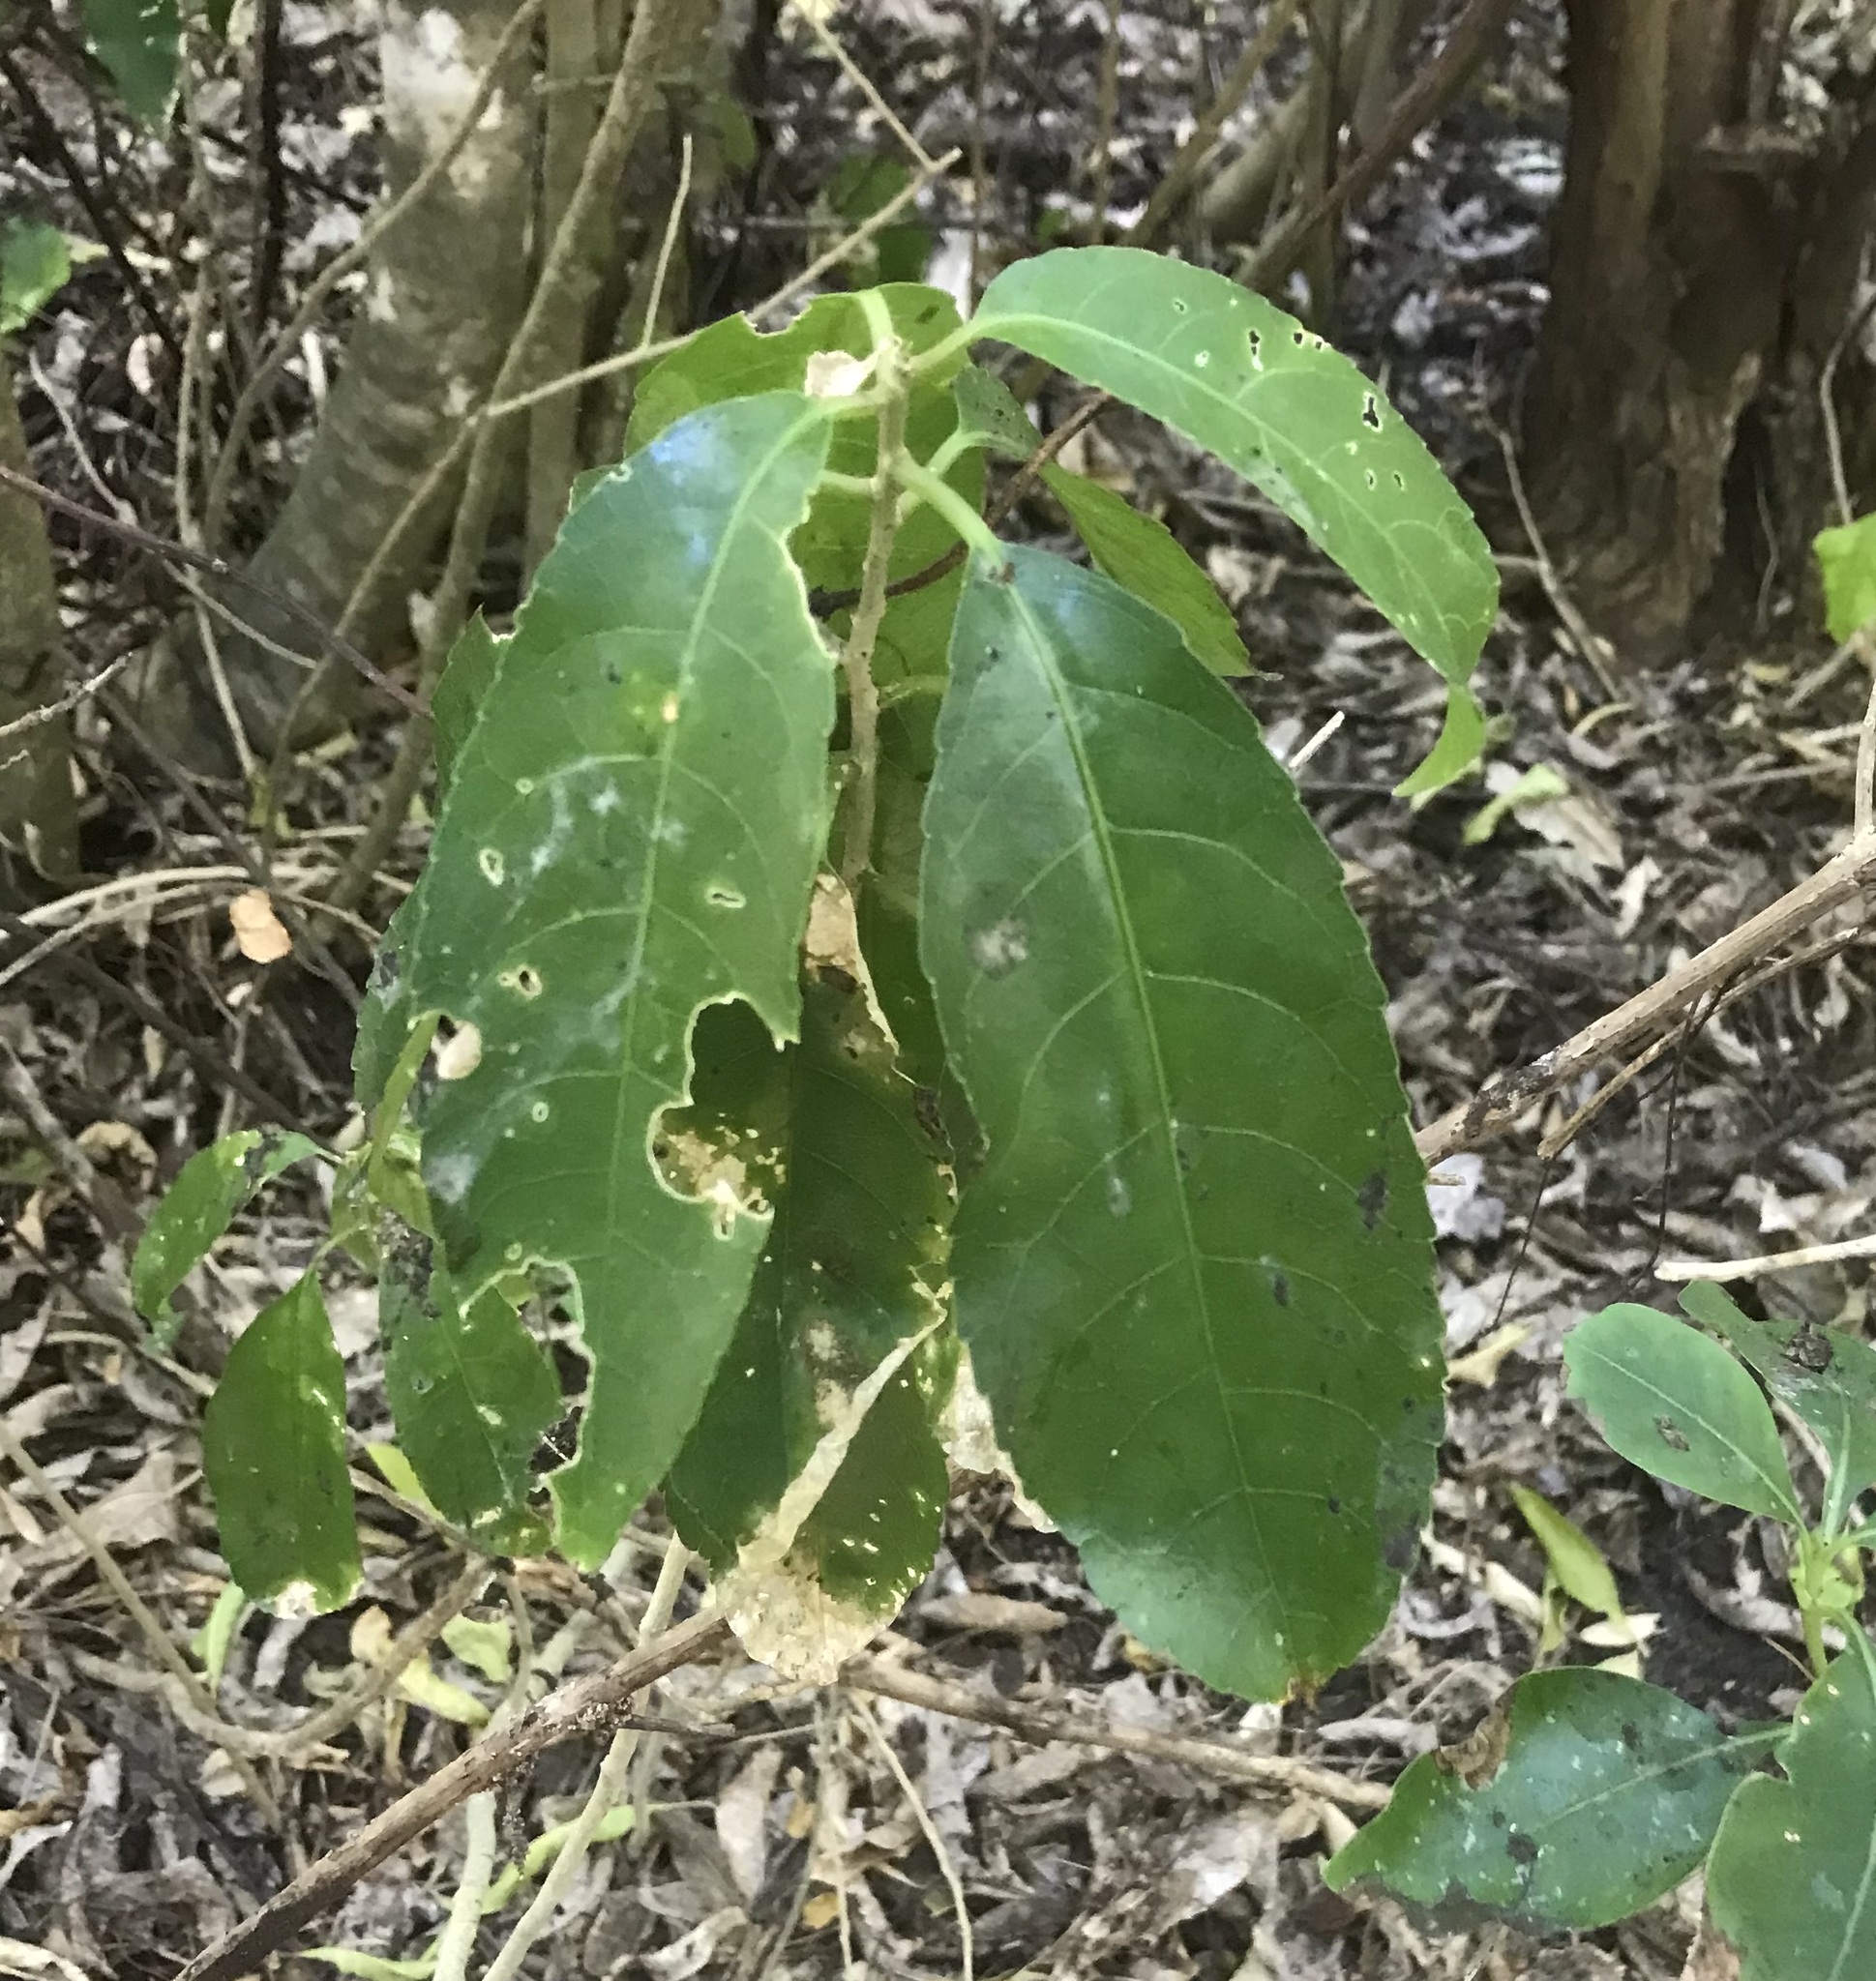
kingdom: Plantae
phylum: Tracheophyta
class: Magnoliopsida
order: Malpighiales
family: Violaceae
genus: Melicytus
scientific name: Melicytus ramiflorus
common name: Mahoe
